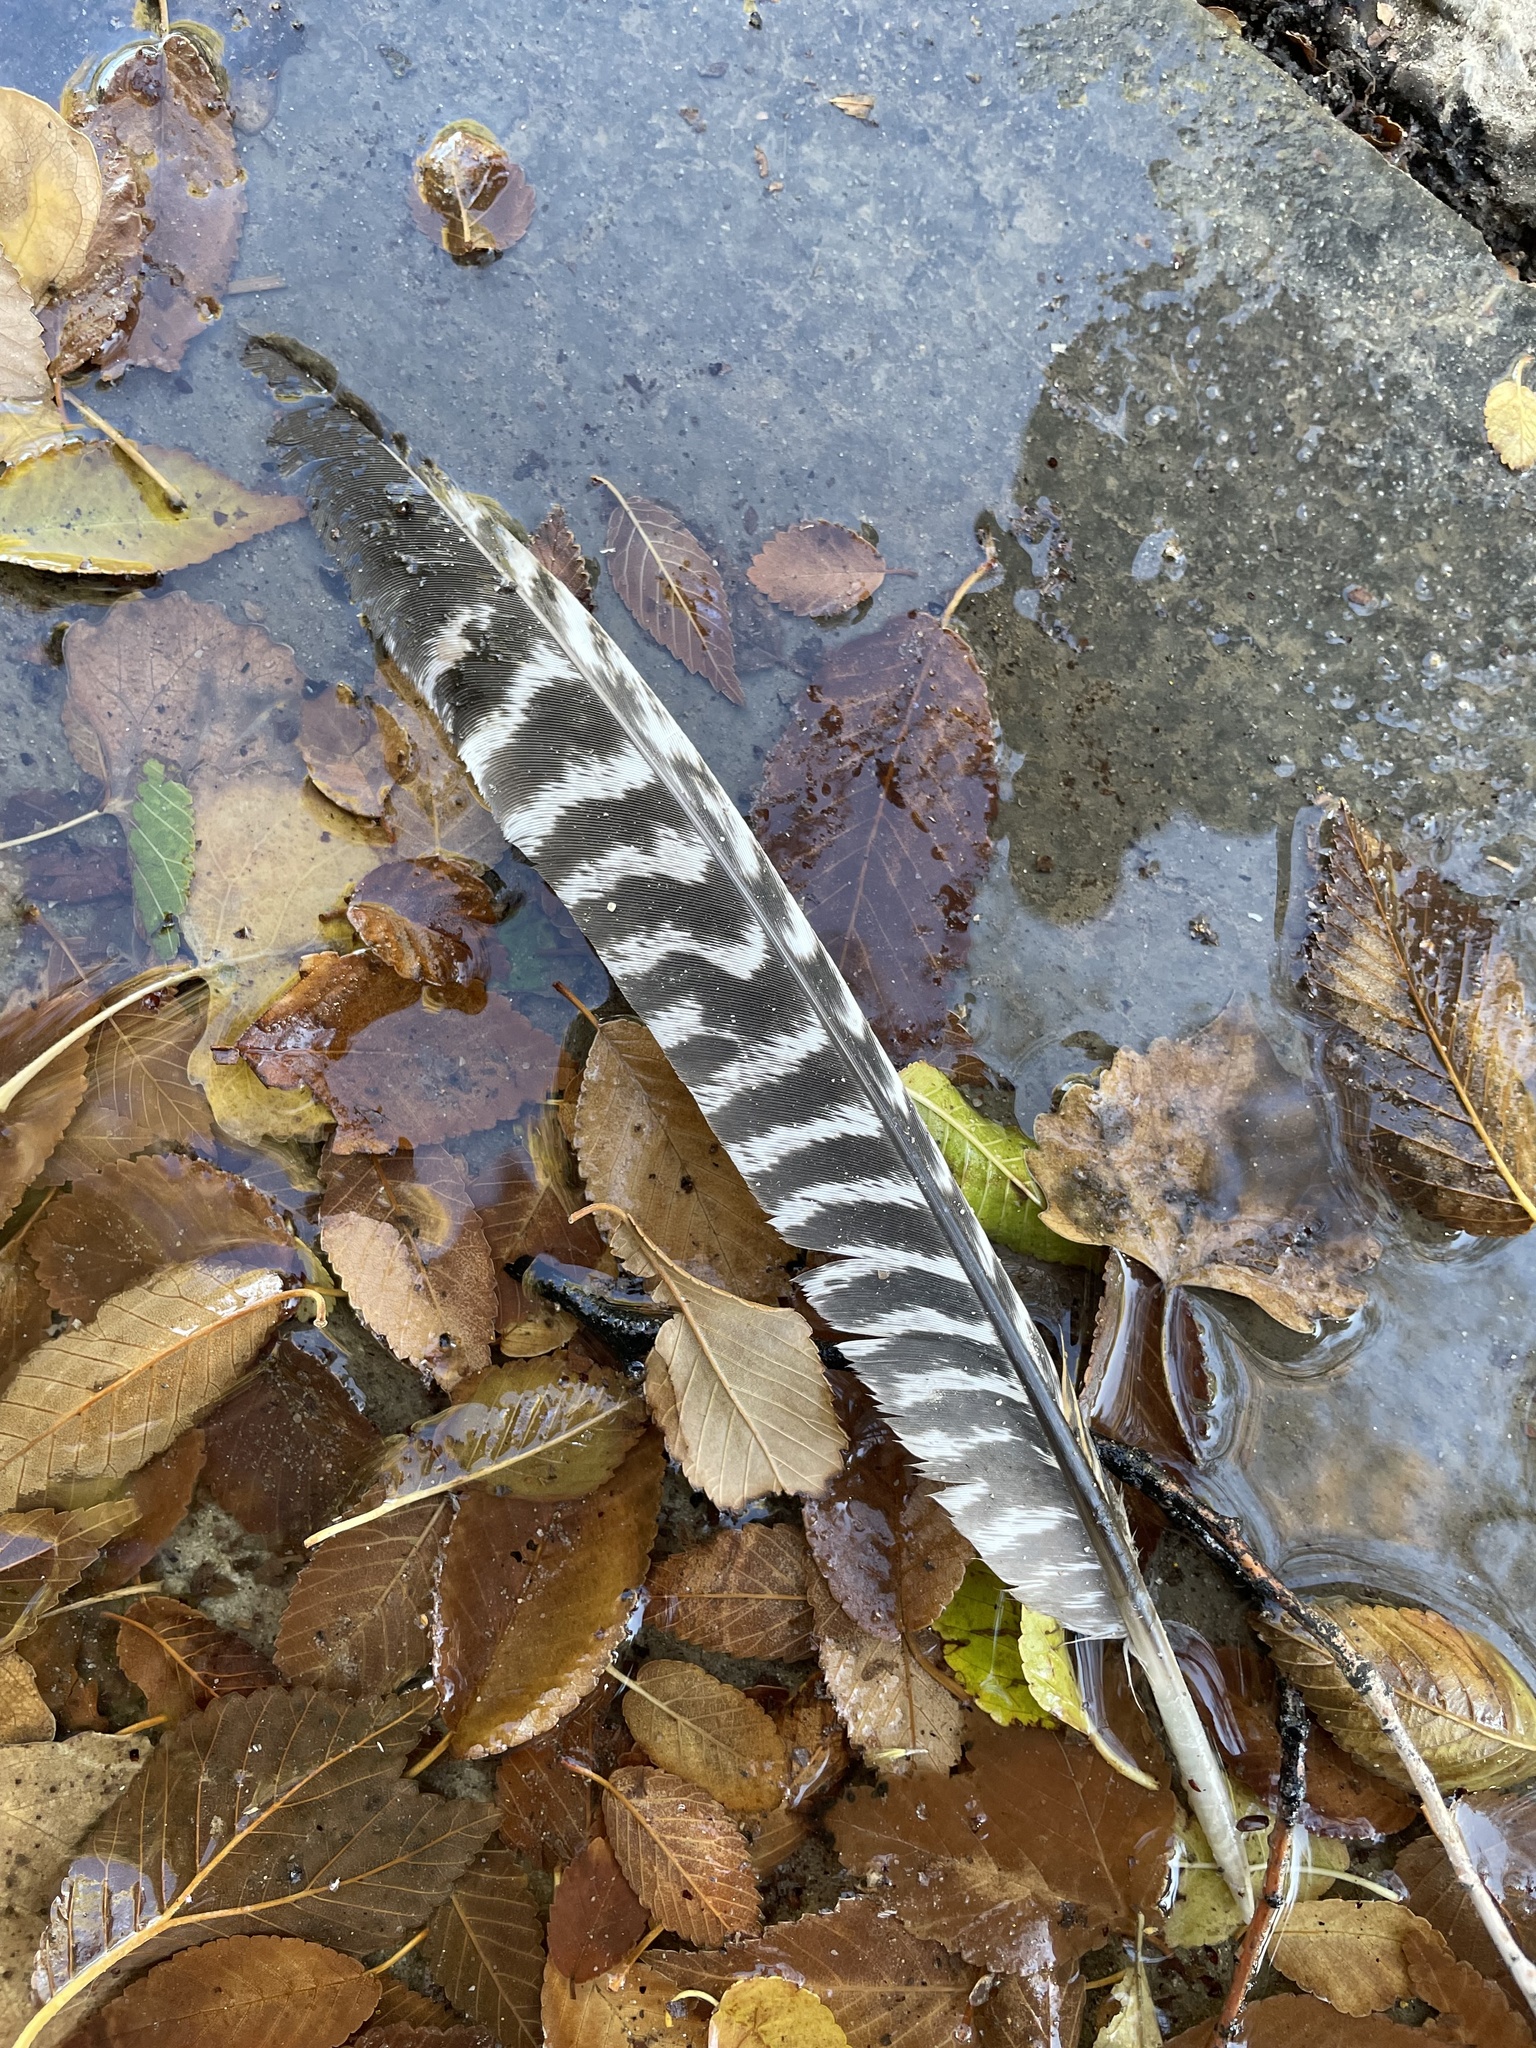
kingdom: Animalia
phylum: Chordata
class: Aves
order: Galliformes
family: Phasianidae
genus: Meleagris
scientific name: Meleagris gallopavo
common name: Wild turkey
